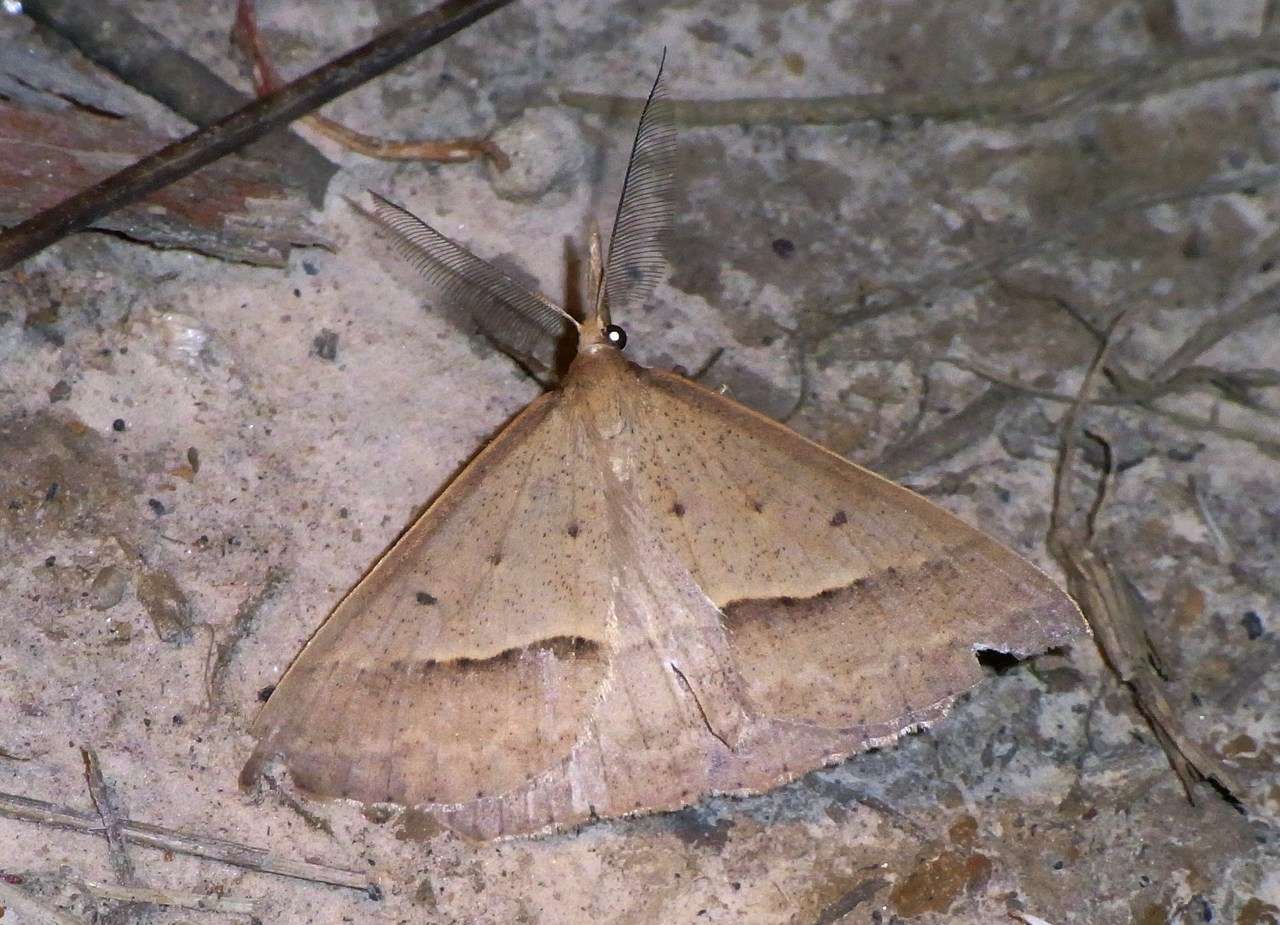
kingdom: Animalia
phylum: Arthropoda
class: Insecta
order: Lepidoptera
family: Geometridae
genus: Epidesmia
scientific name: Epidesmia hypenaria
